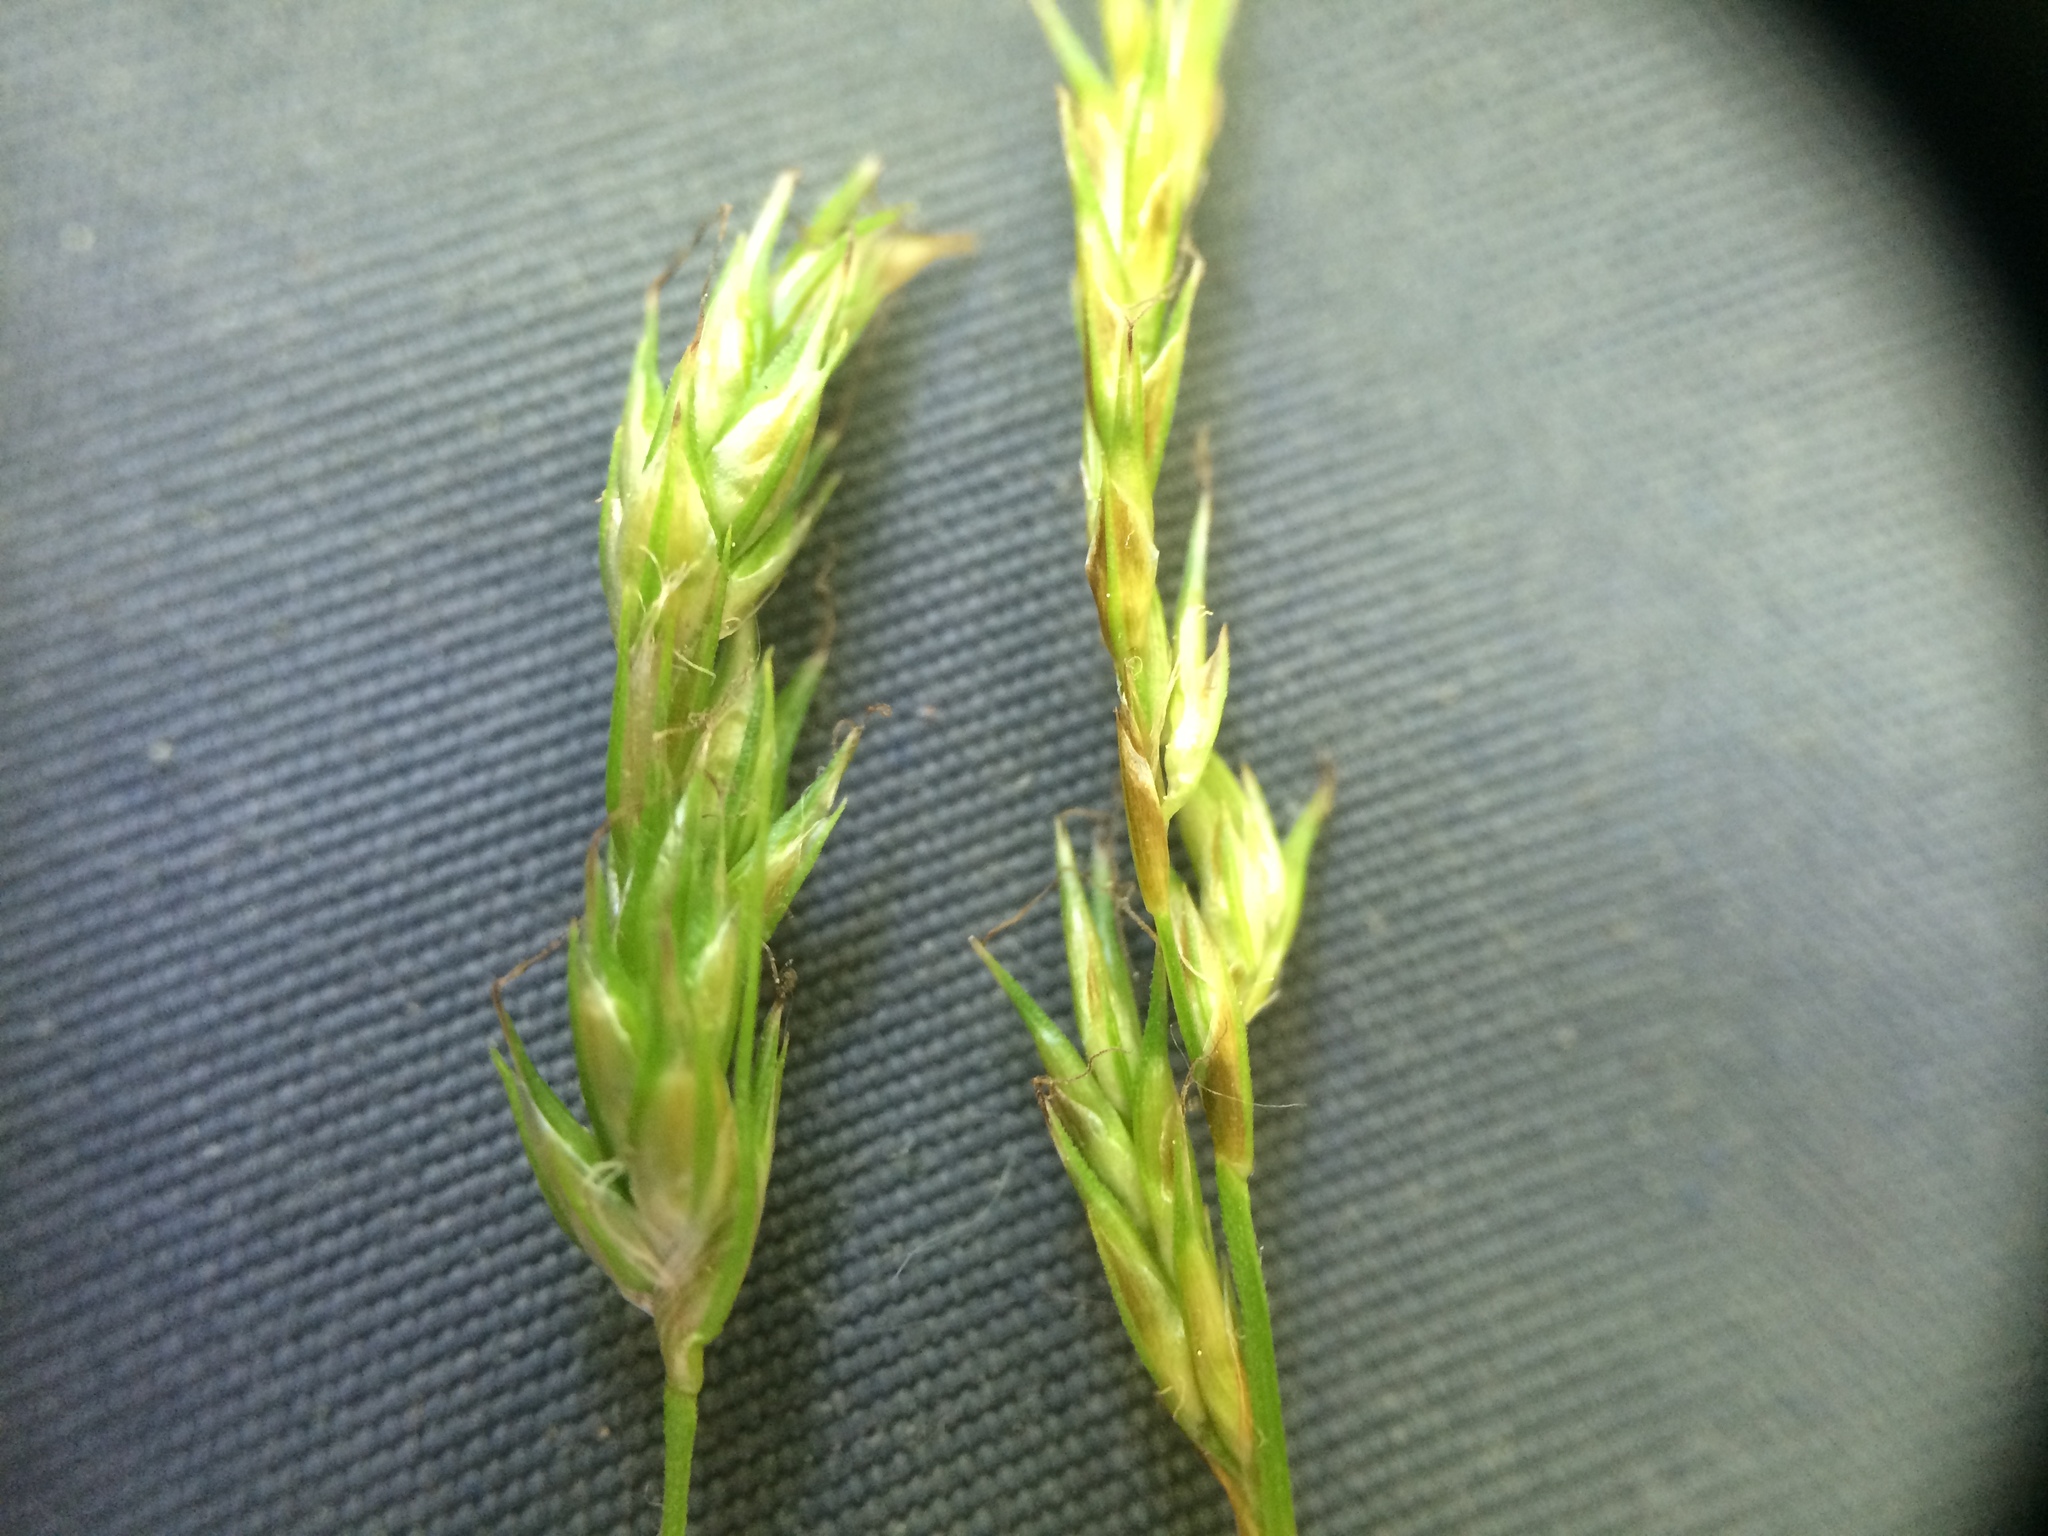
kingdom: Plantae
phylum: Tracheophyta
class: Liliopsida
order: Poales
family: Cyperaceae
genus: Carex
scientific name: Carex bromoides
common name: Brome hummock sedge
